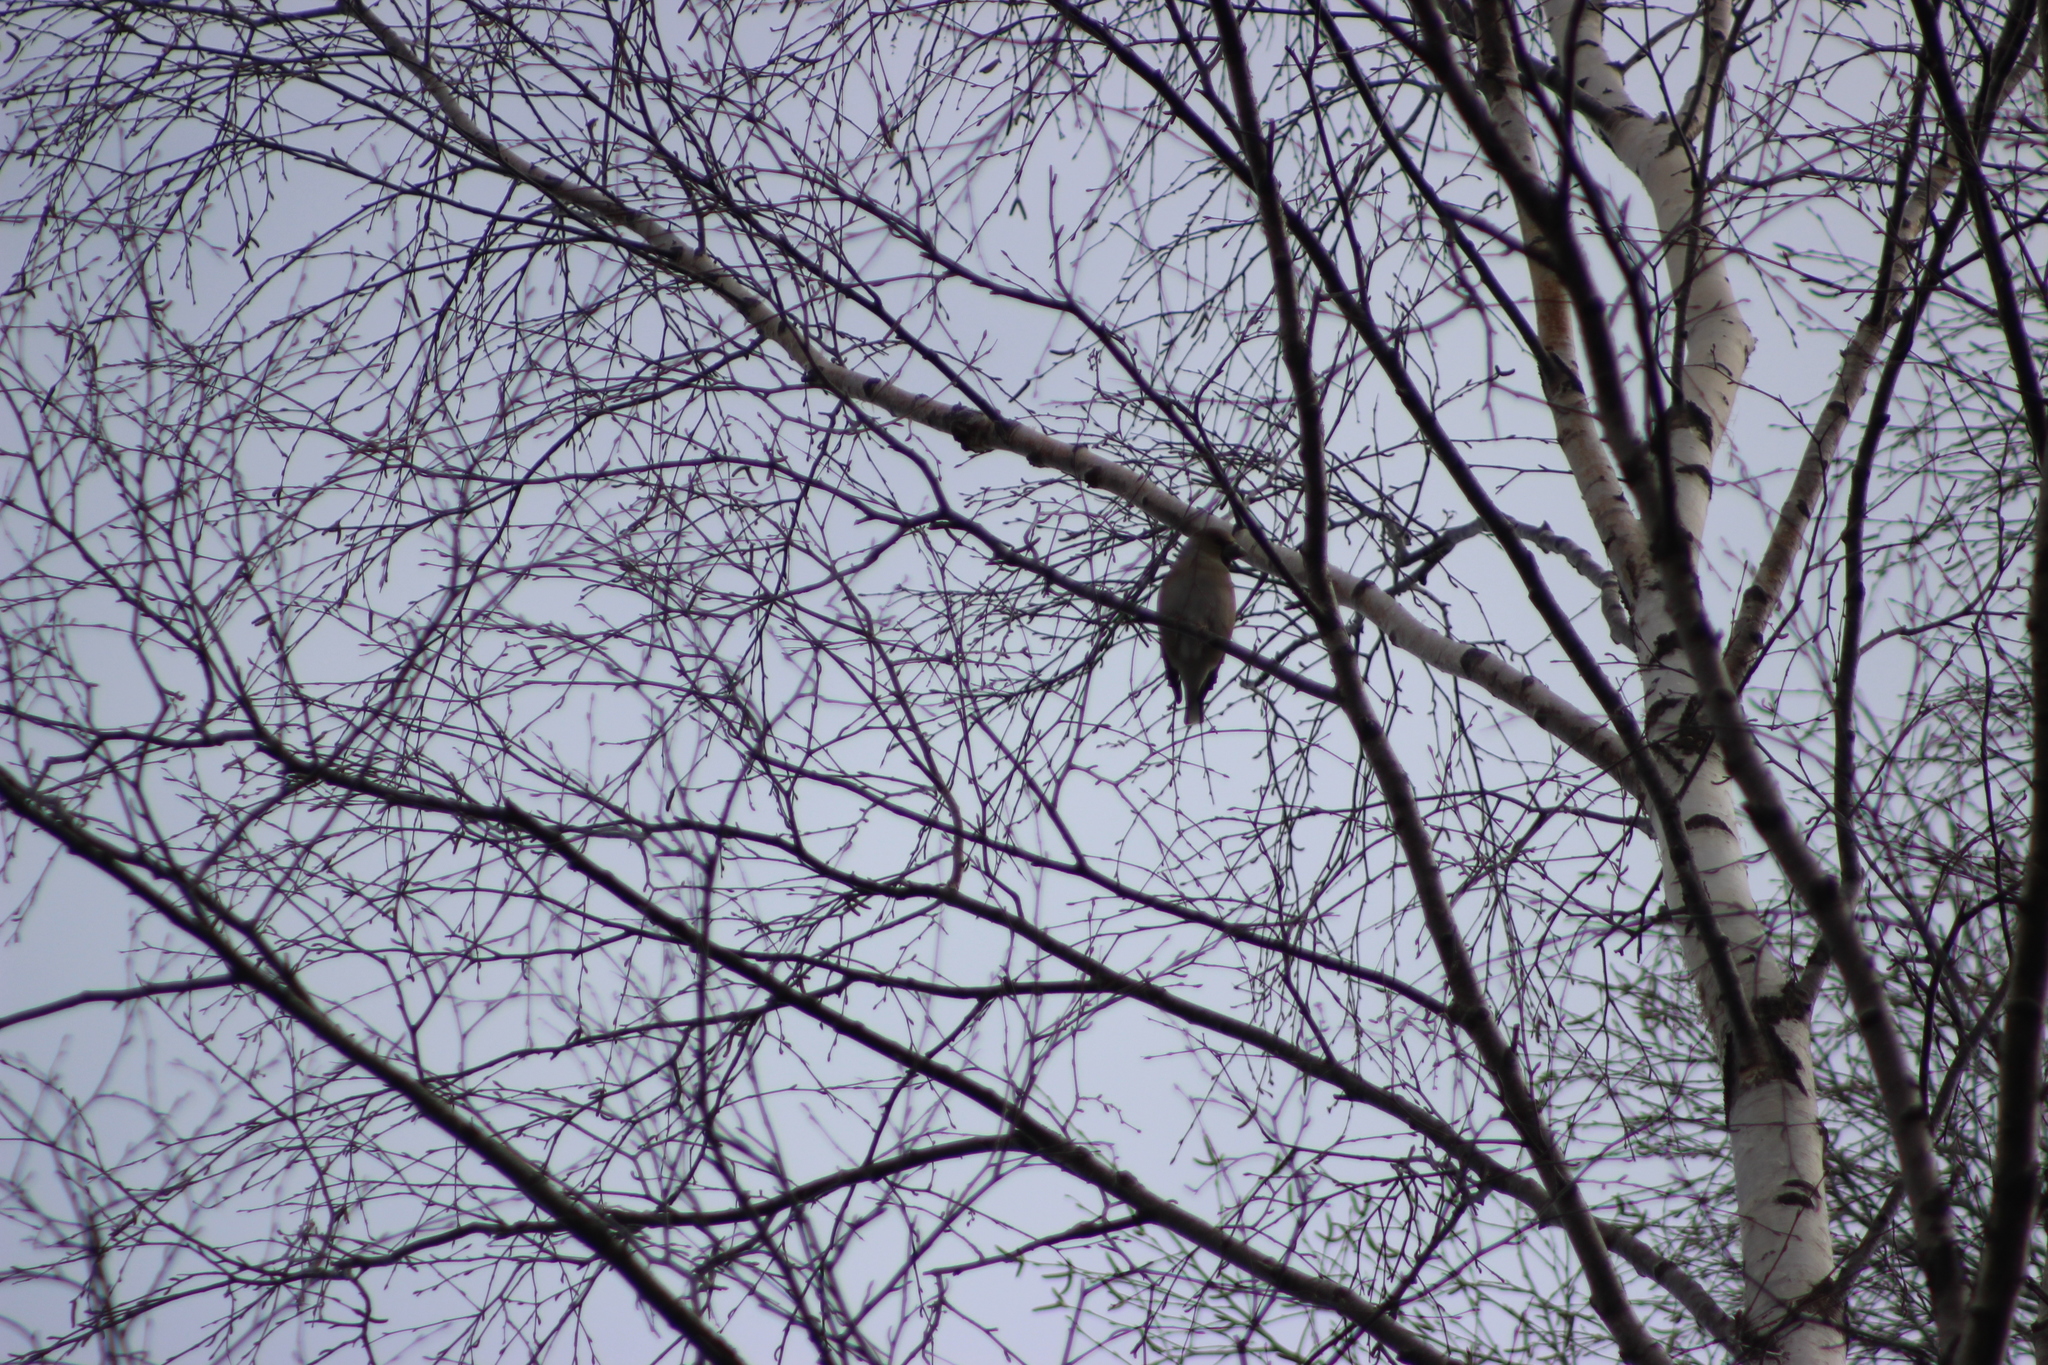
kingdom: Animalia
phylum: Chordata
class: Aves
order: Passeriformes
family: Fringillidae
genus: Coccothraustes
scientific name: Coccothraustes coccothraustes
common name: Hawfinch
